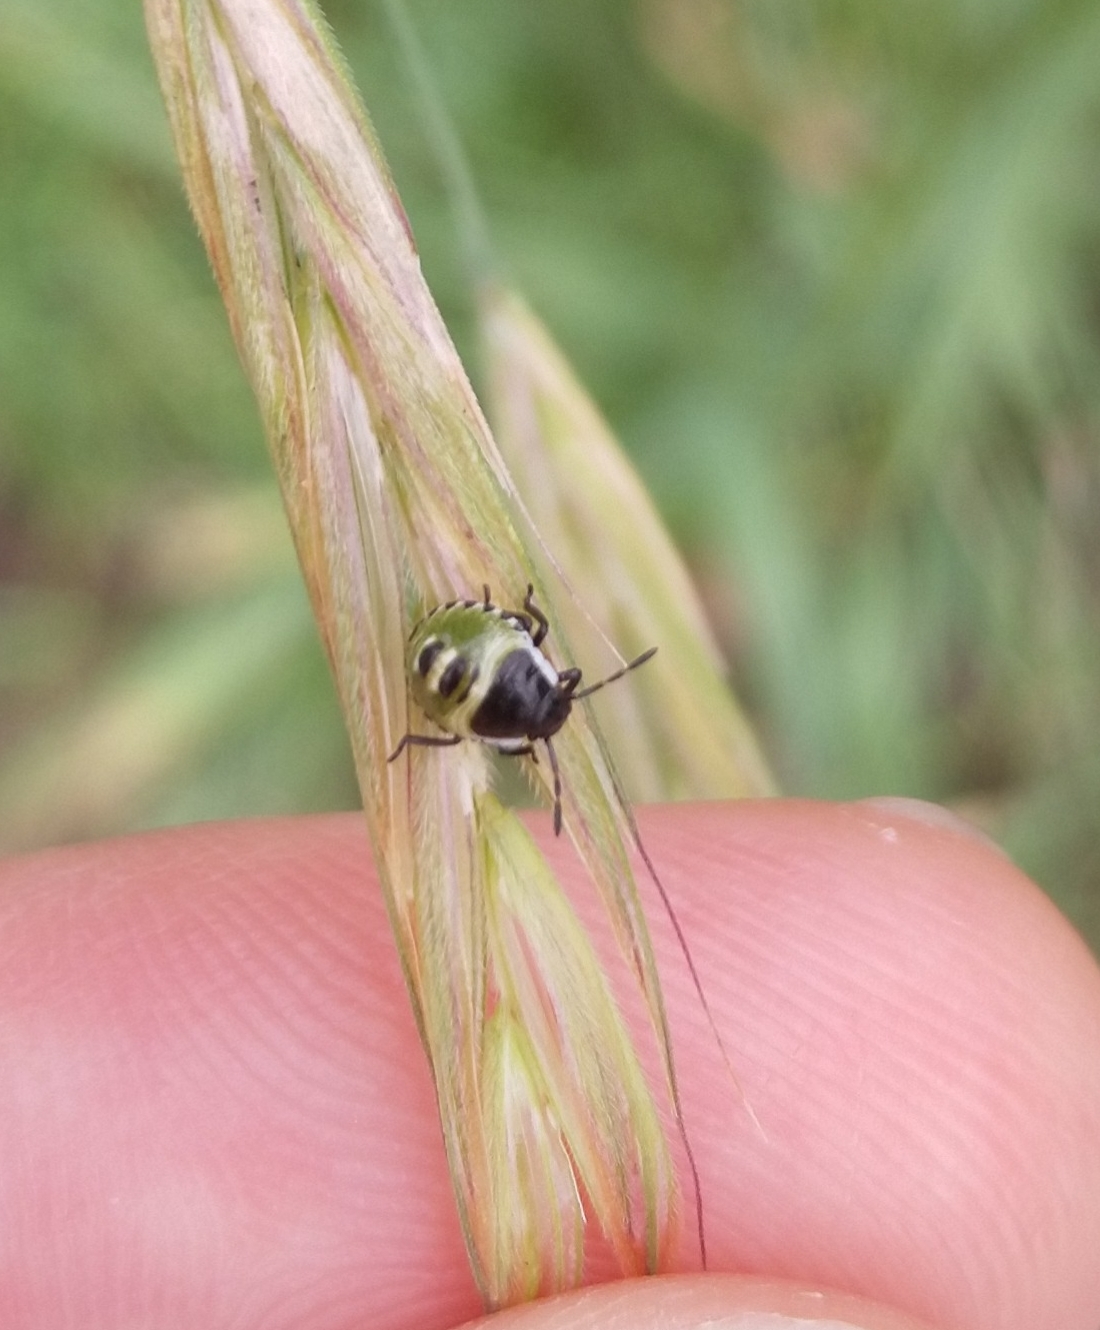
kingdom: Animalia
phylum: Arthropoda
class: Insecta
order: Hemiptera
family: Pentatomidae
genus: Palomena
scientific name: Palomena prasina
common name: Green shieldbug
